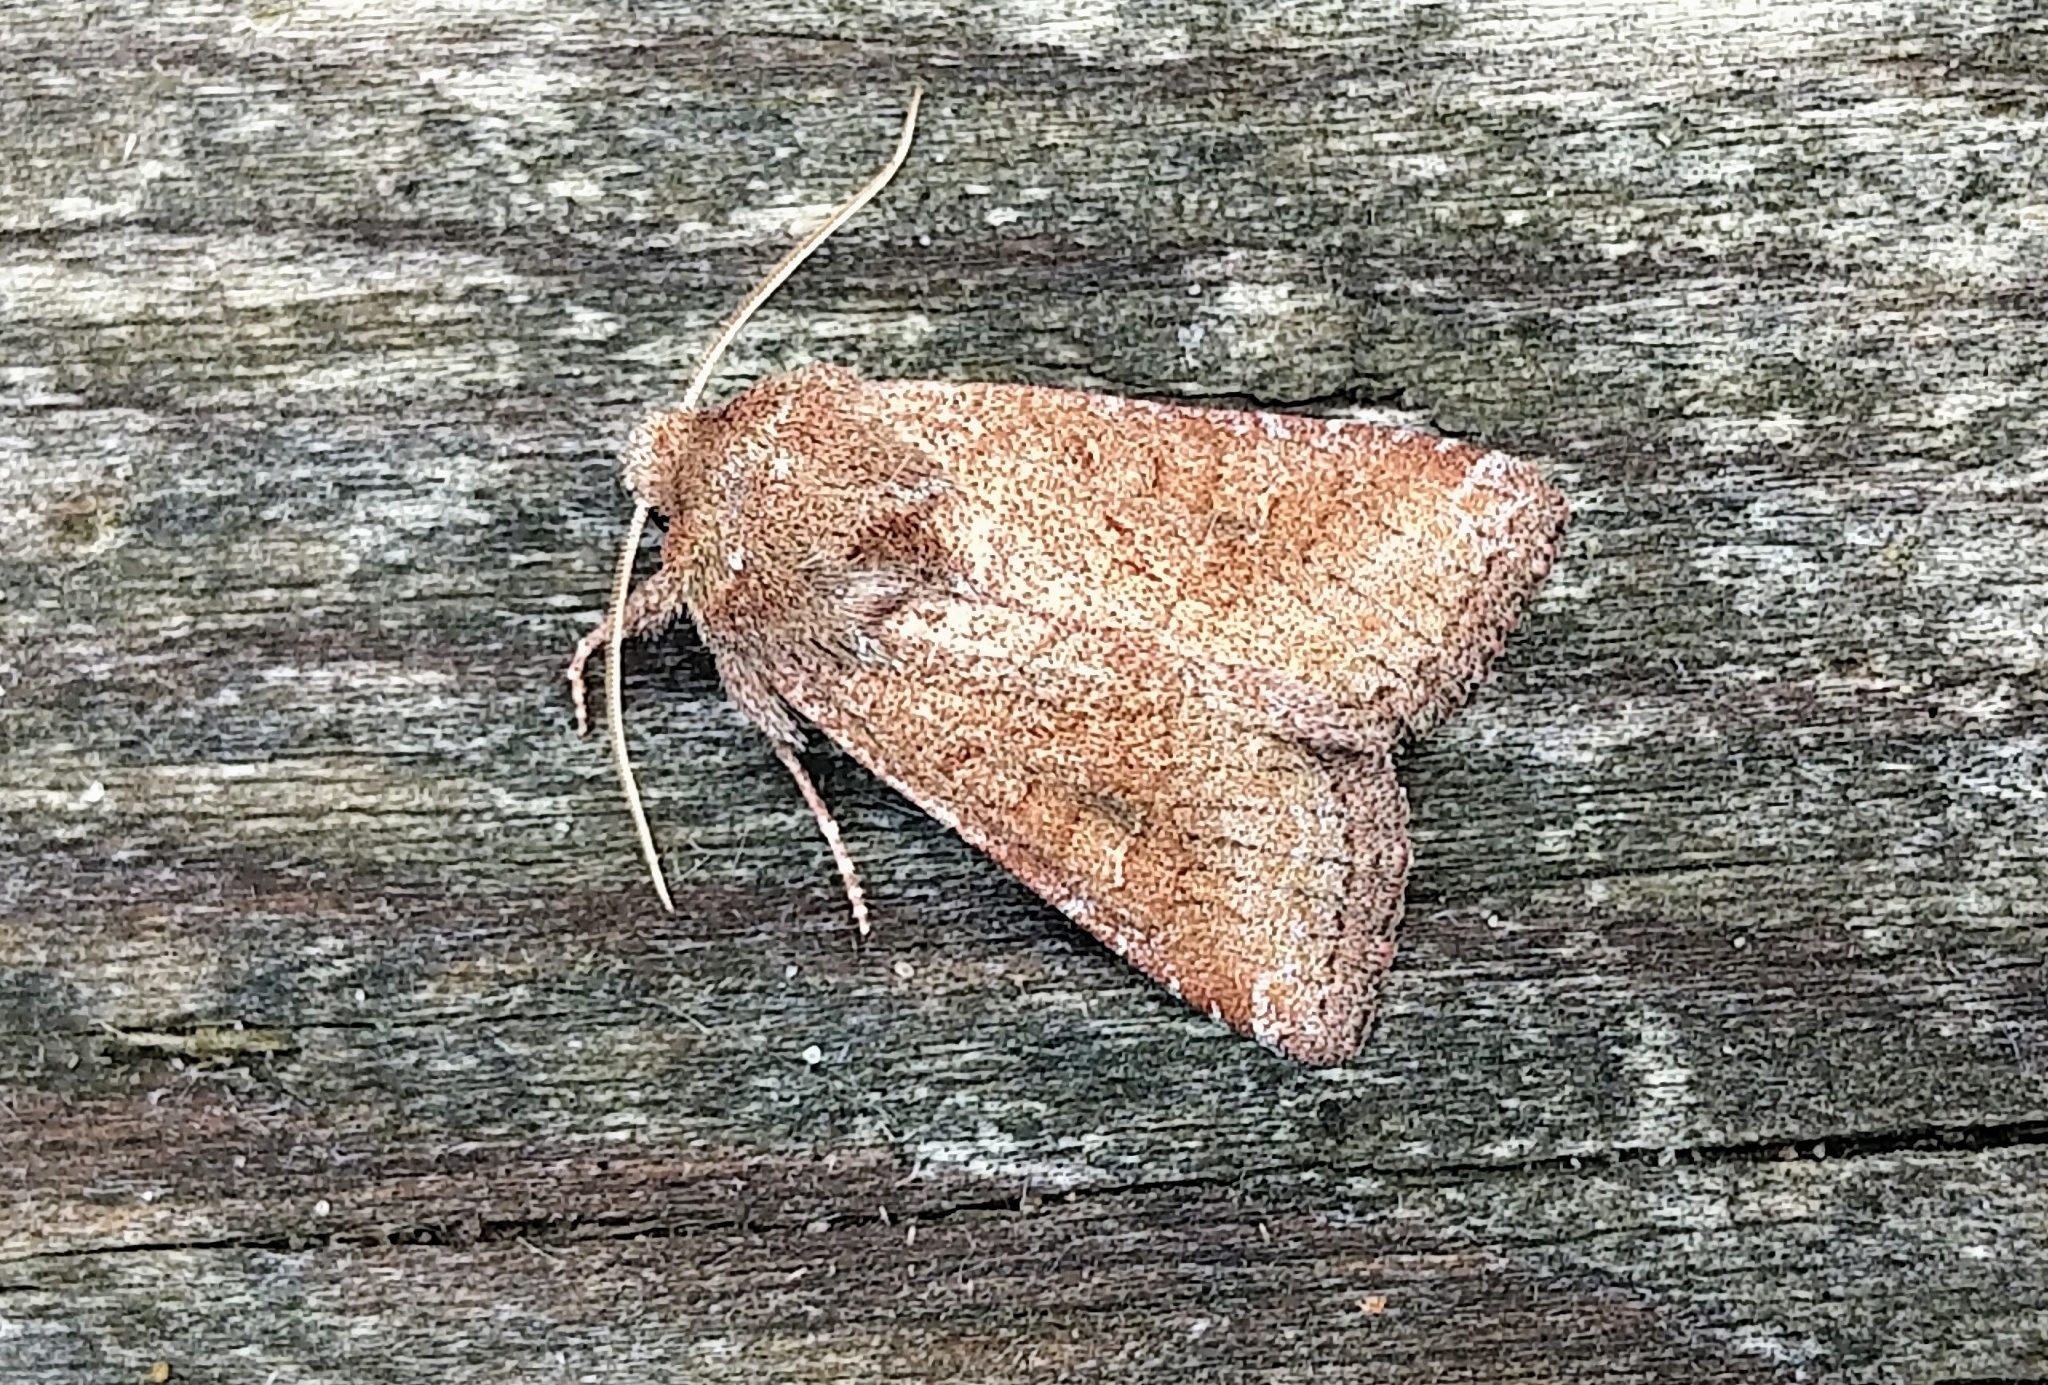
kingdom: Animalia
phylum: Arthropoda
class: Insecta
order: Lepidoptera
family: Noctuidae
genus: Lacinipolia
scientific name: Lacinipolia meditata
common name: Thinker moth
